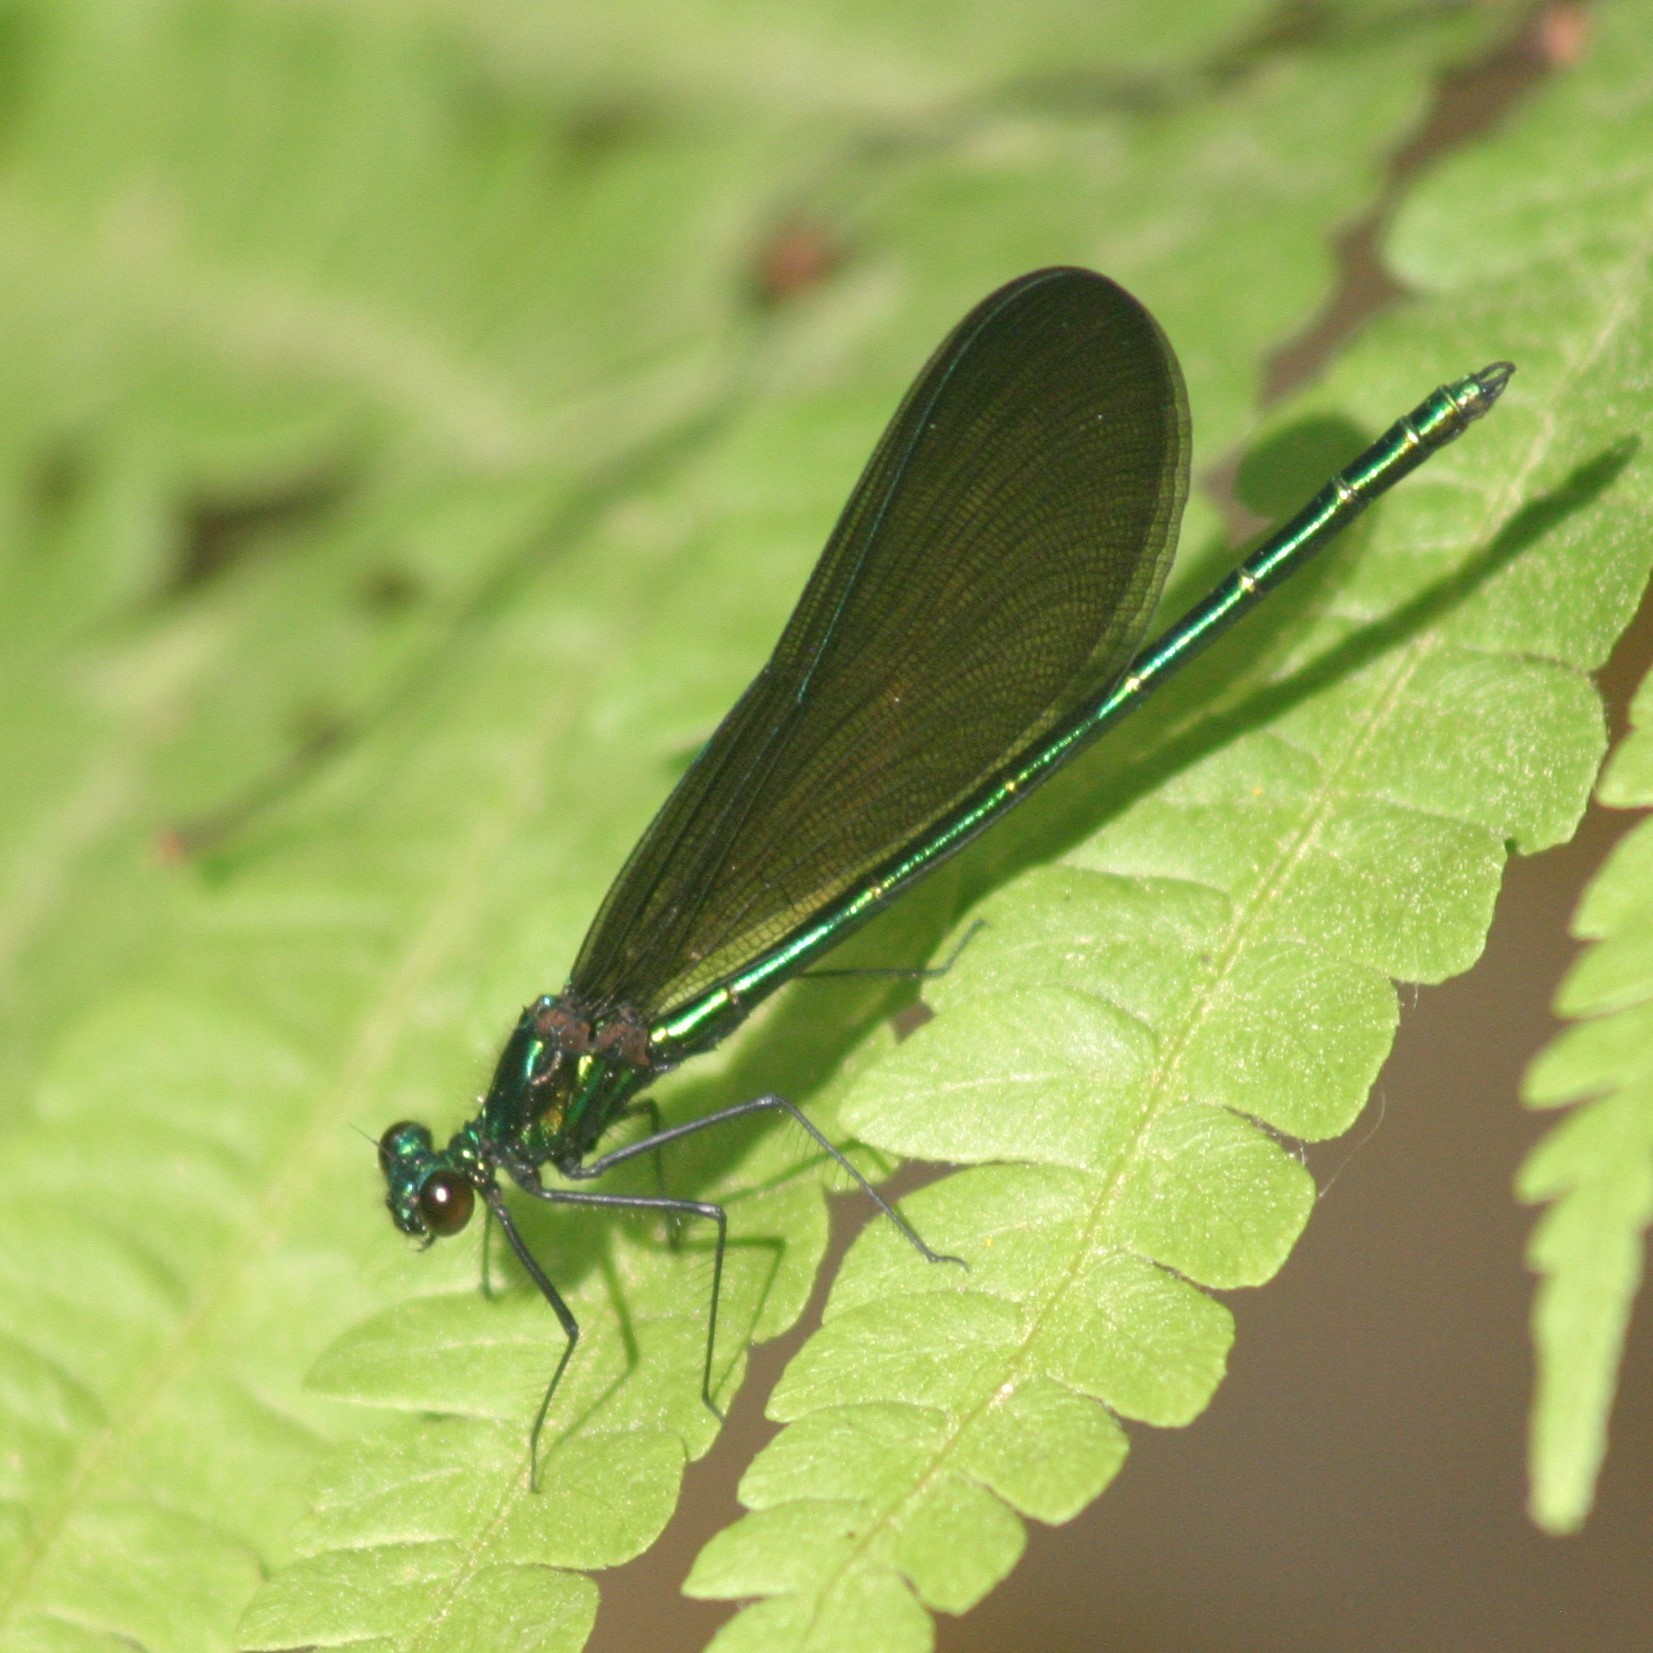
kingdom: Animalia
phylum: Arthropoda
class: Insecta
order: Odonata
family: Calopterygidae
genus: Calopteryx
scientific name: Calopteryx maculata
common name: Ebony jewelwing
